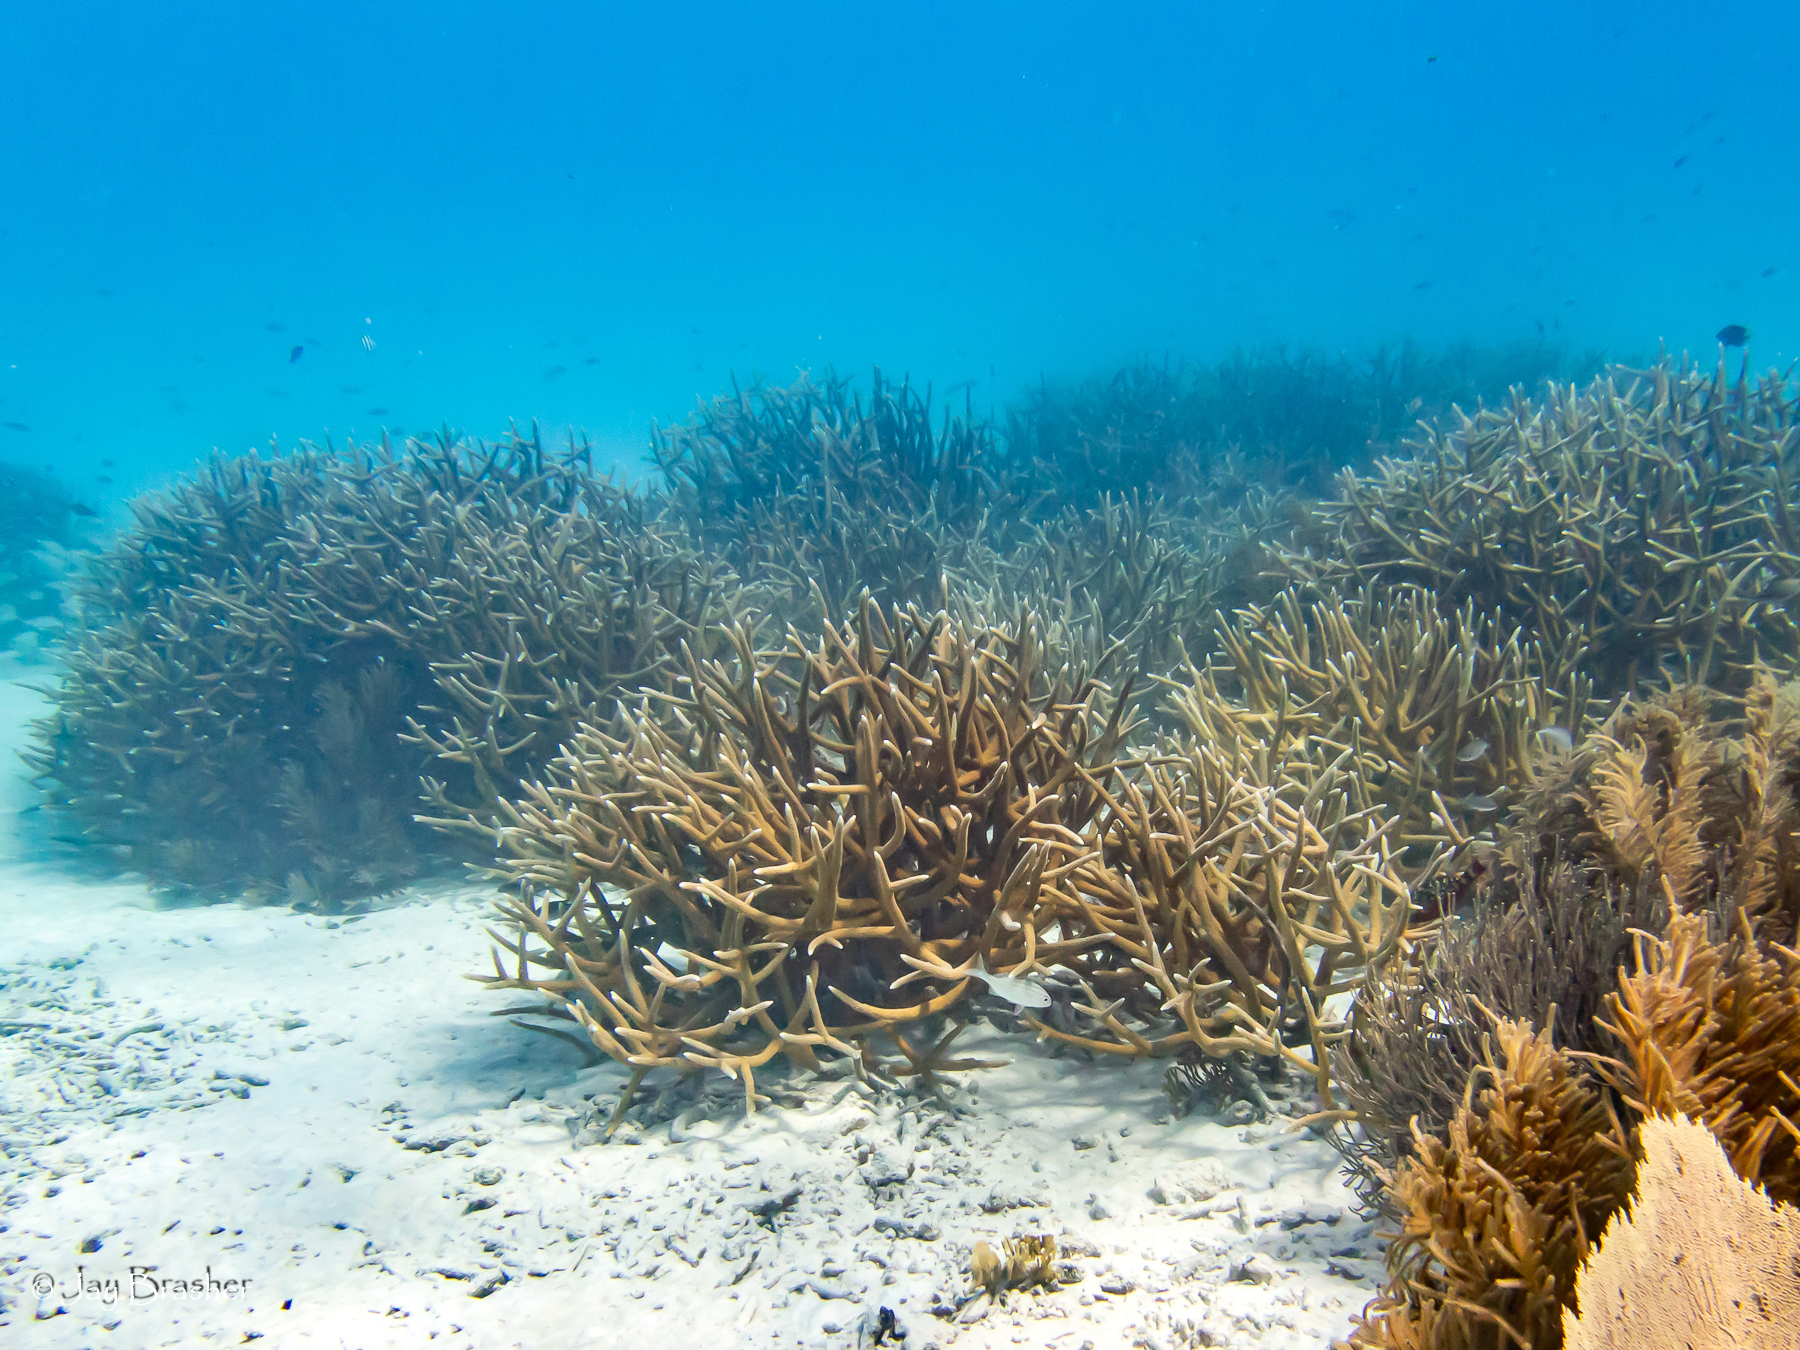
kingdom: Animalia
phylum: Cnidaria
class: Anthozoa
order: Scleractinia
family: Acroporidae
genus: Acropora
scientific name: Acropora cervicornis
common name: Staghorn coral
